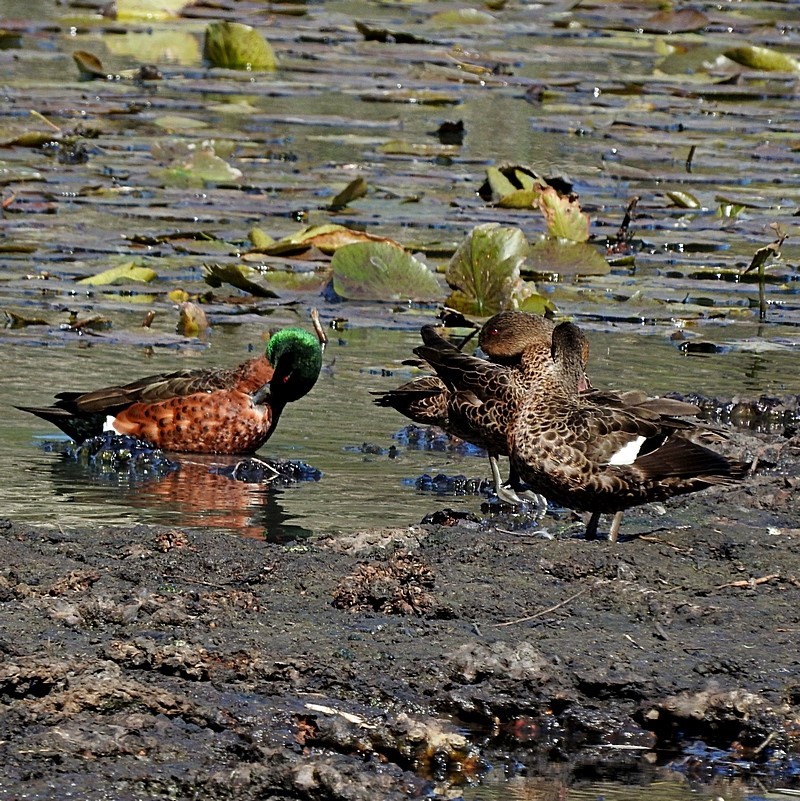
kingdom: Animalia
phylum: Chordata
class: Aves
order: Anseriformes
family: Anatidae
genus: Anas
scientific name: Anas castanea
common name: Chestnut teal
